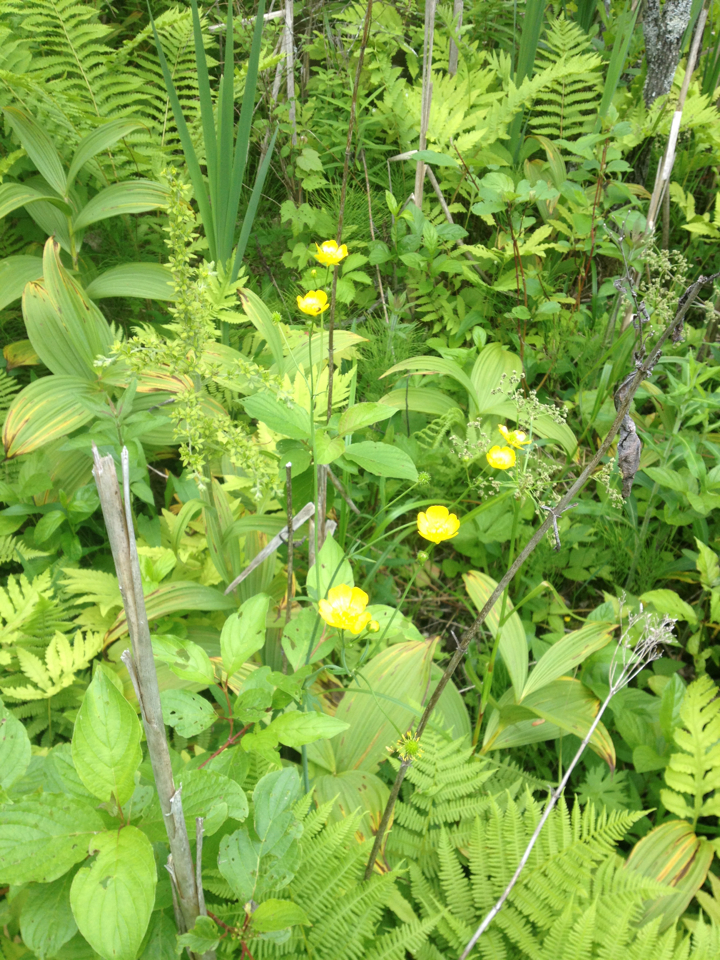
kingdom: Plantae
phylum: Tracheophyta
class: Magnoliopsida
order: Ranunculales
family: Ranunculaceae
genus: Ranunculus
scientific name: Ranunculus acris
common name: Meadow buttercup
